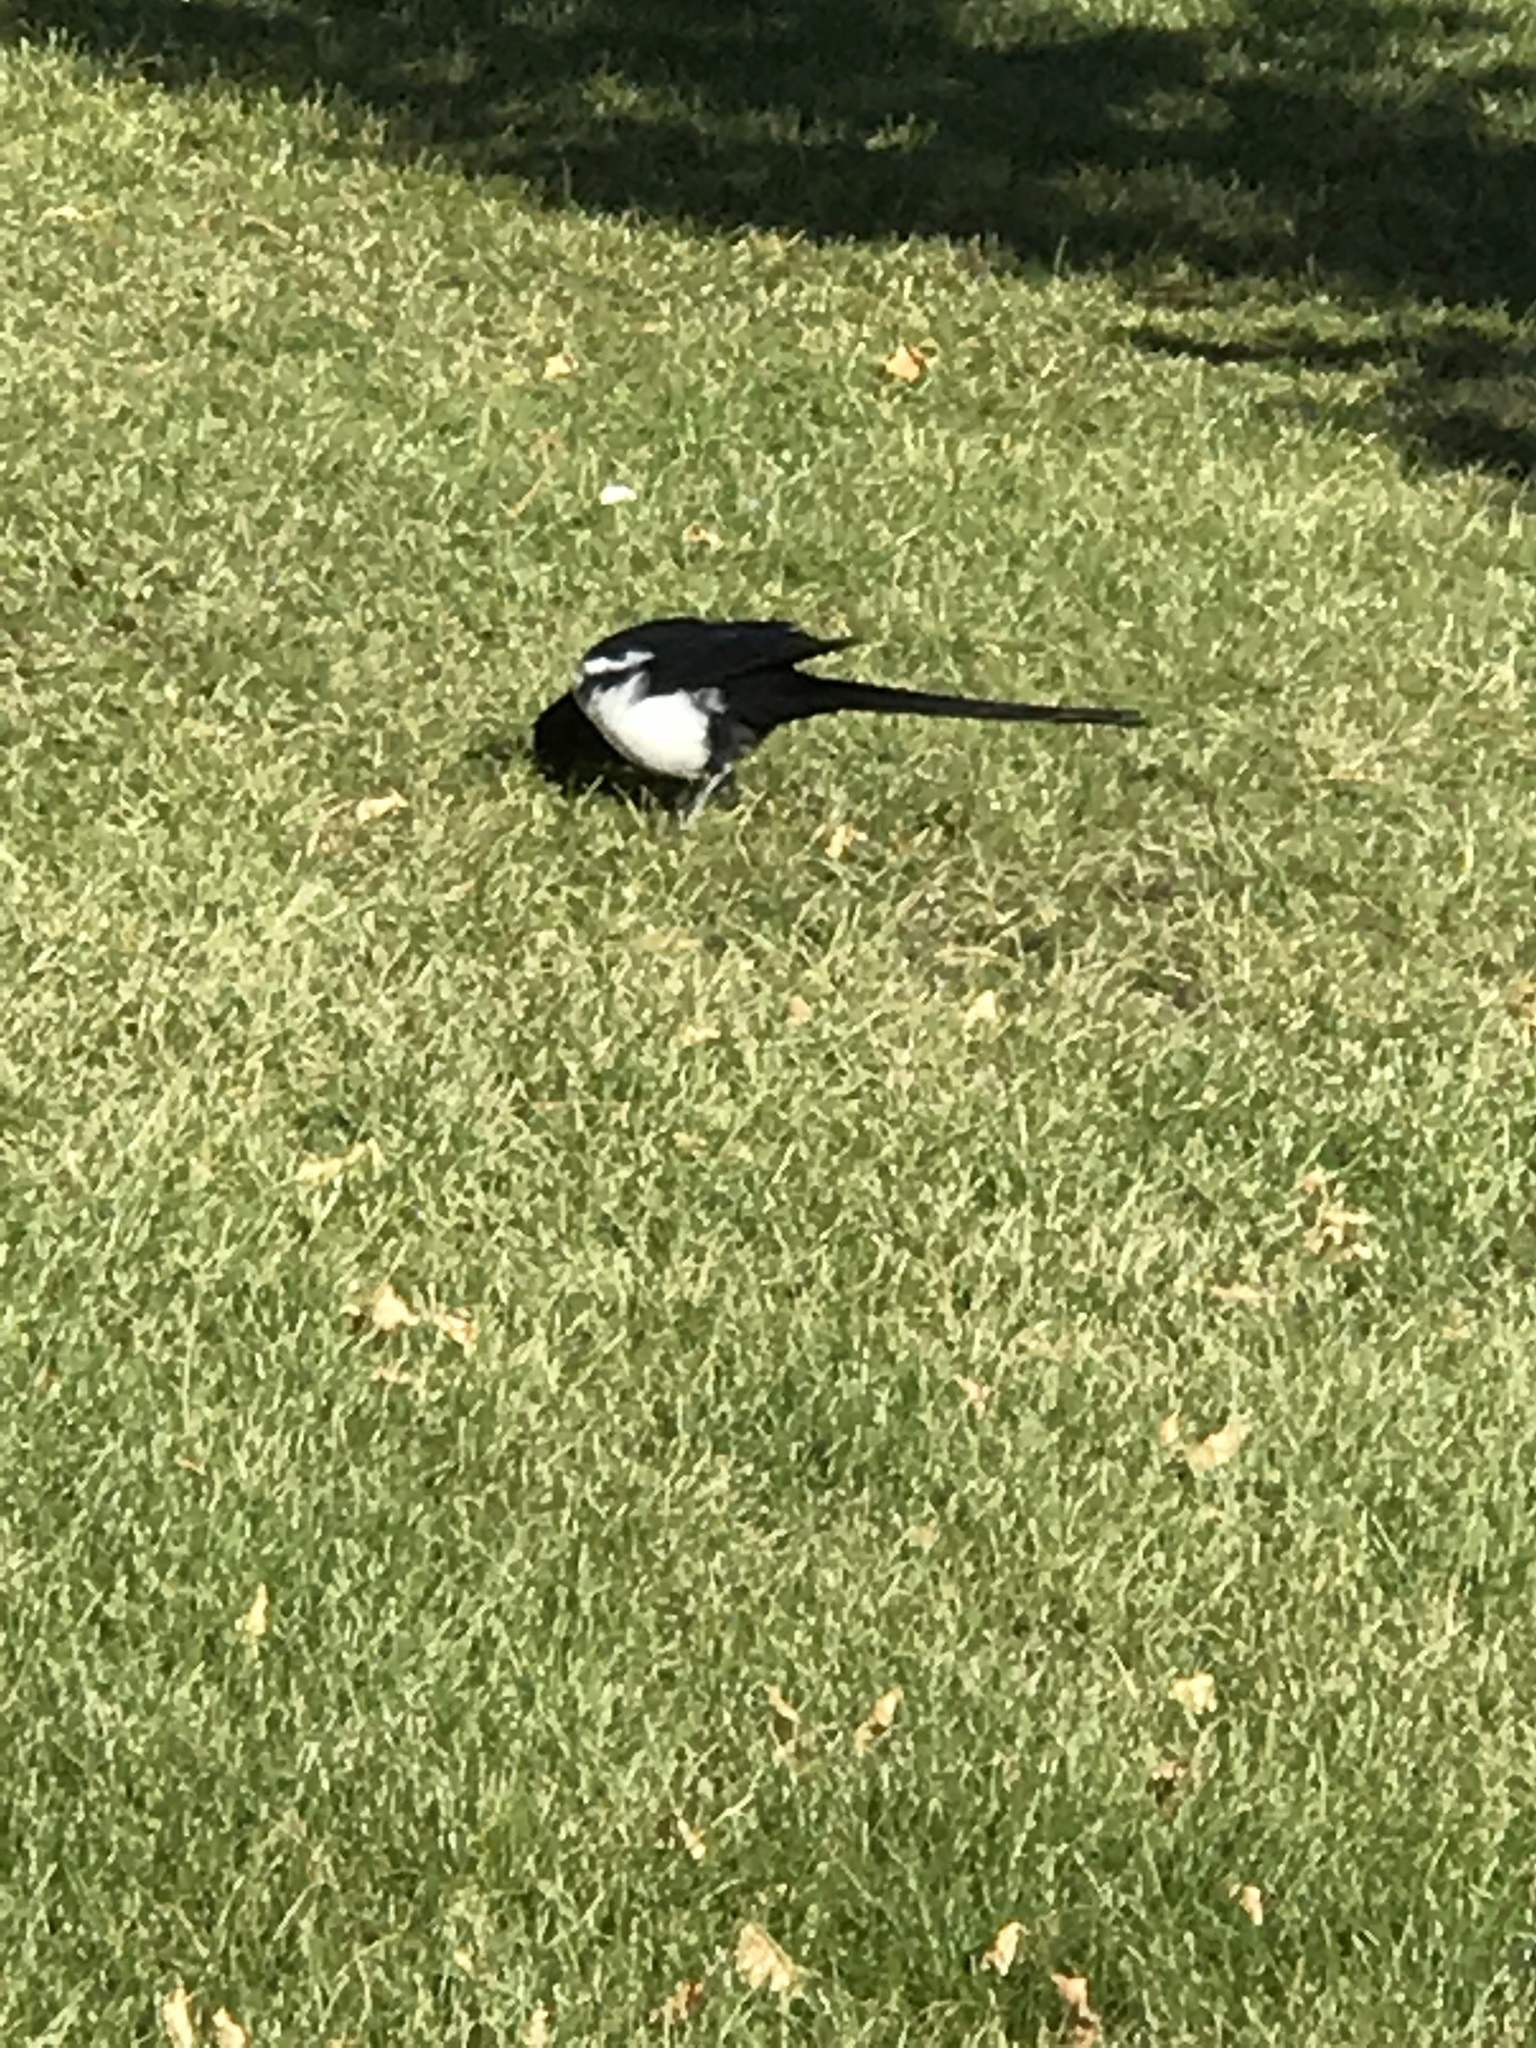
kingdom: Animalia
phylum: Chordata
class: Aves
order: Passeriformes
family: Corvidae
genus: Pica
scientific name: Pica hudsonia
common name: Black-billed magpie
